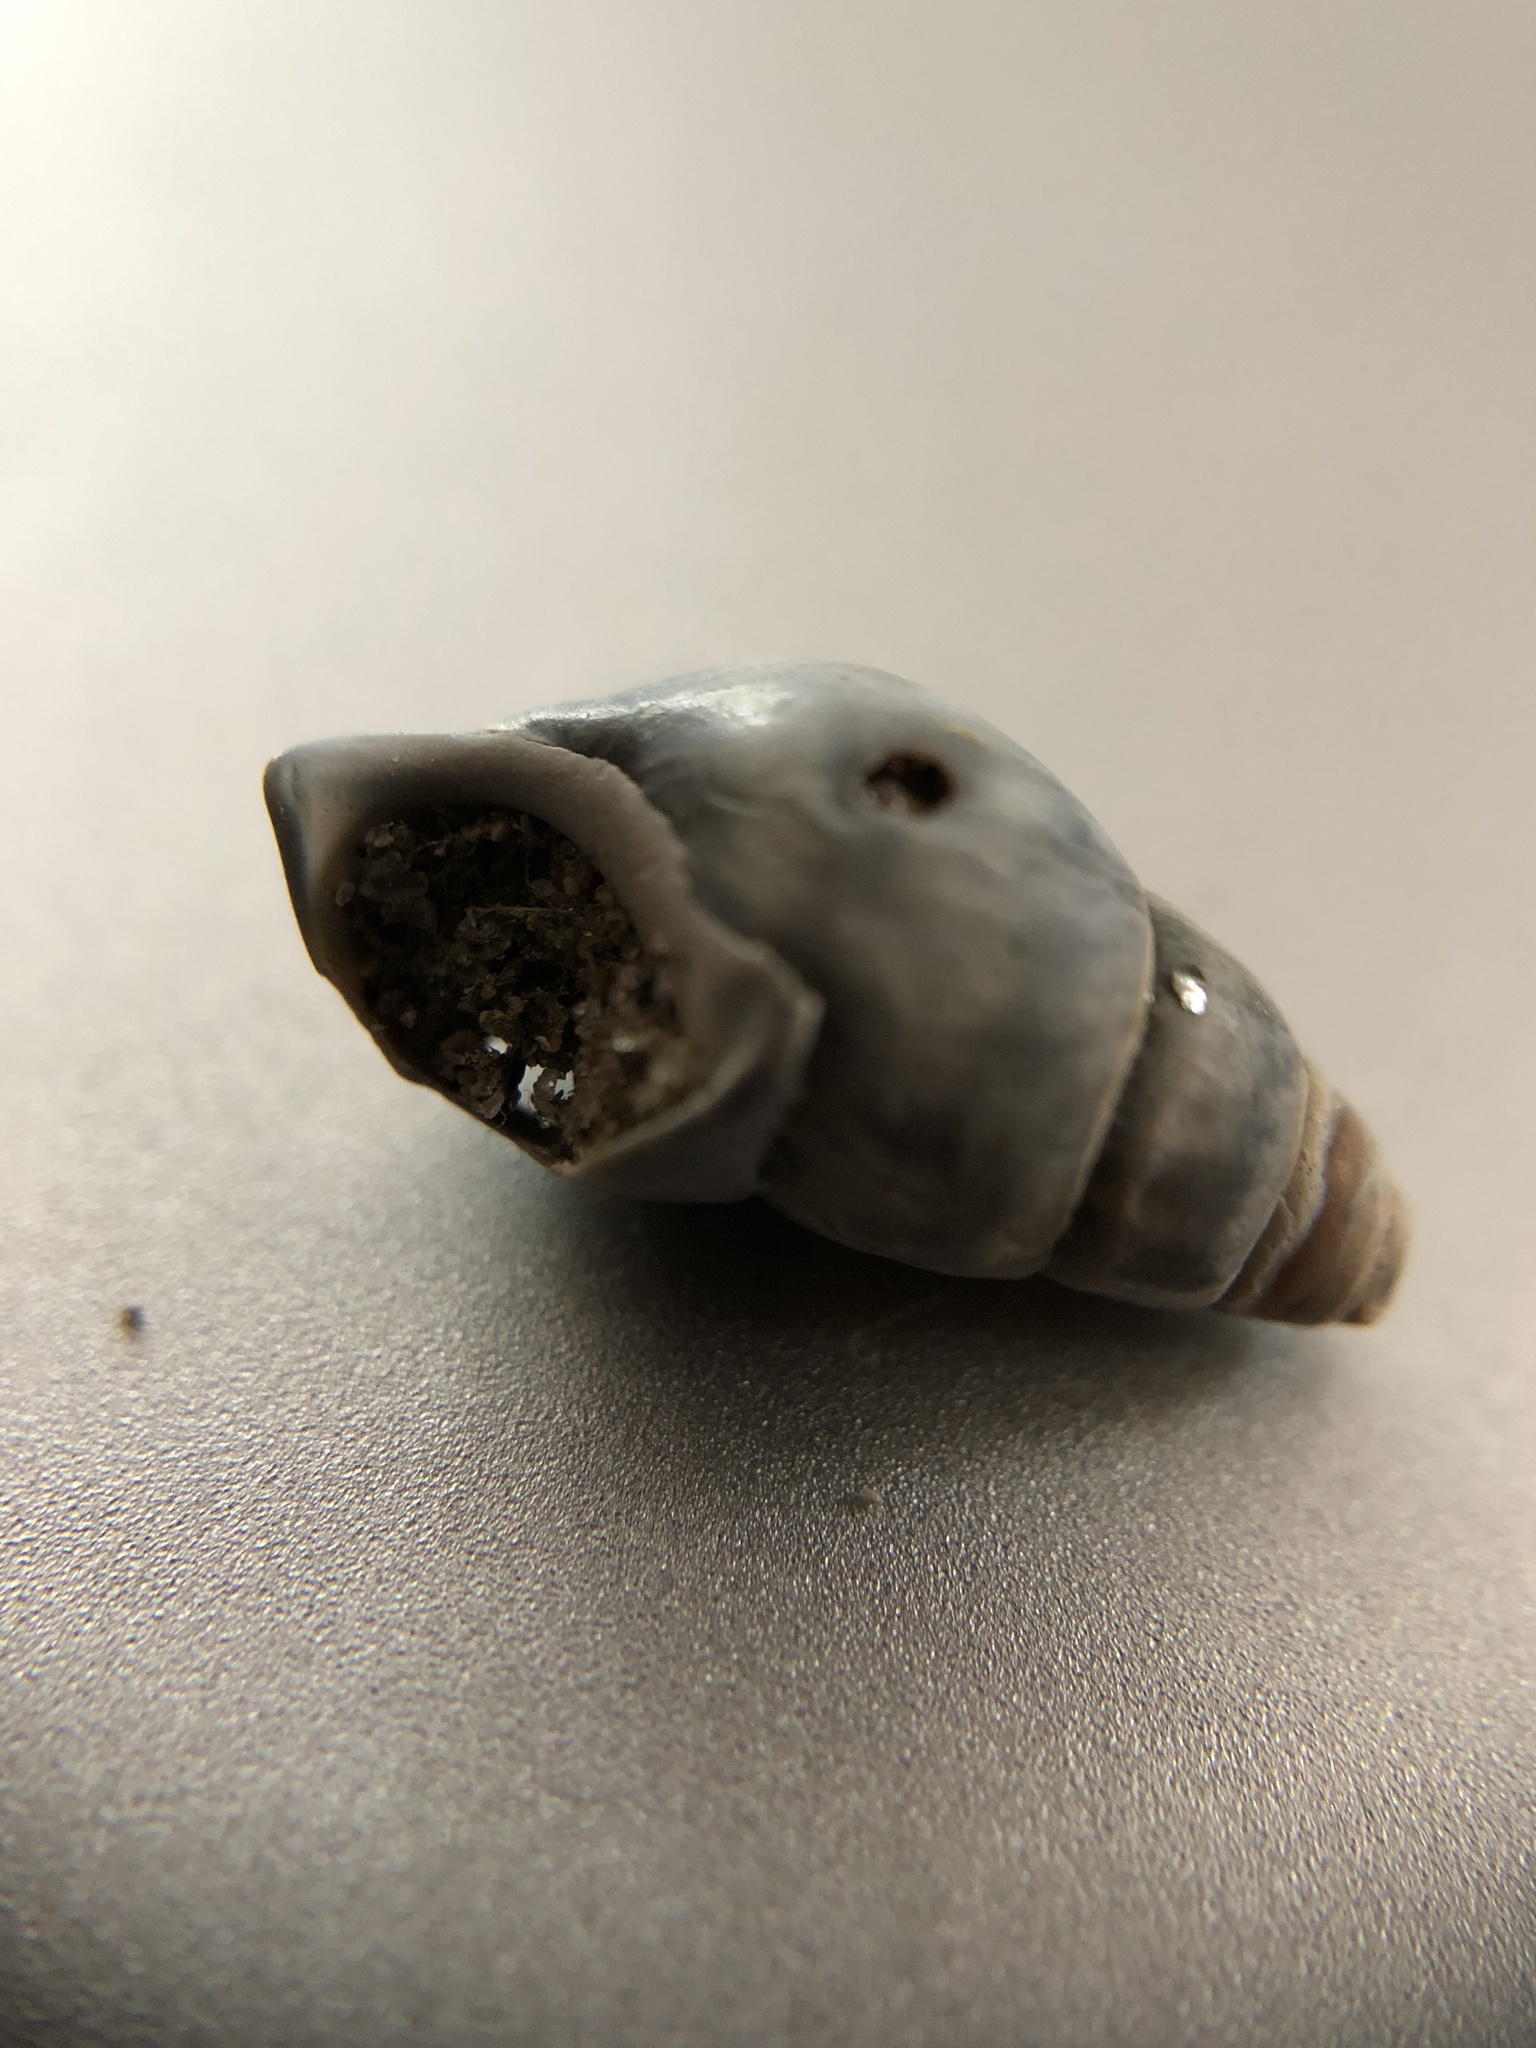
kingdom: Animalia
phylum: Mollusca
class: Gastropoda
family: Pleuroceridae
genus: Elimia
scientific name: Elimia livescens
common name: Liver elimia
